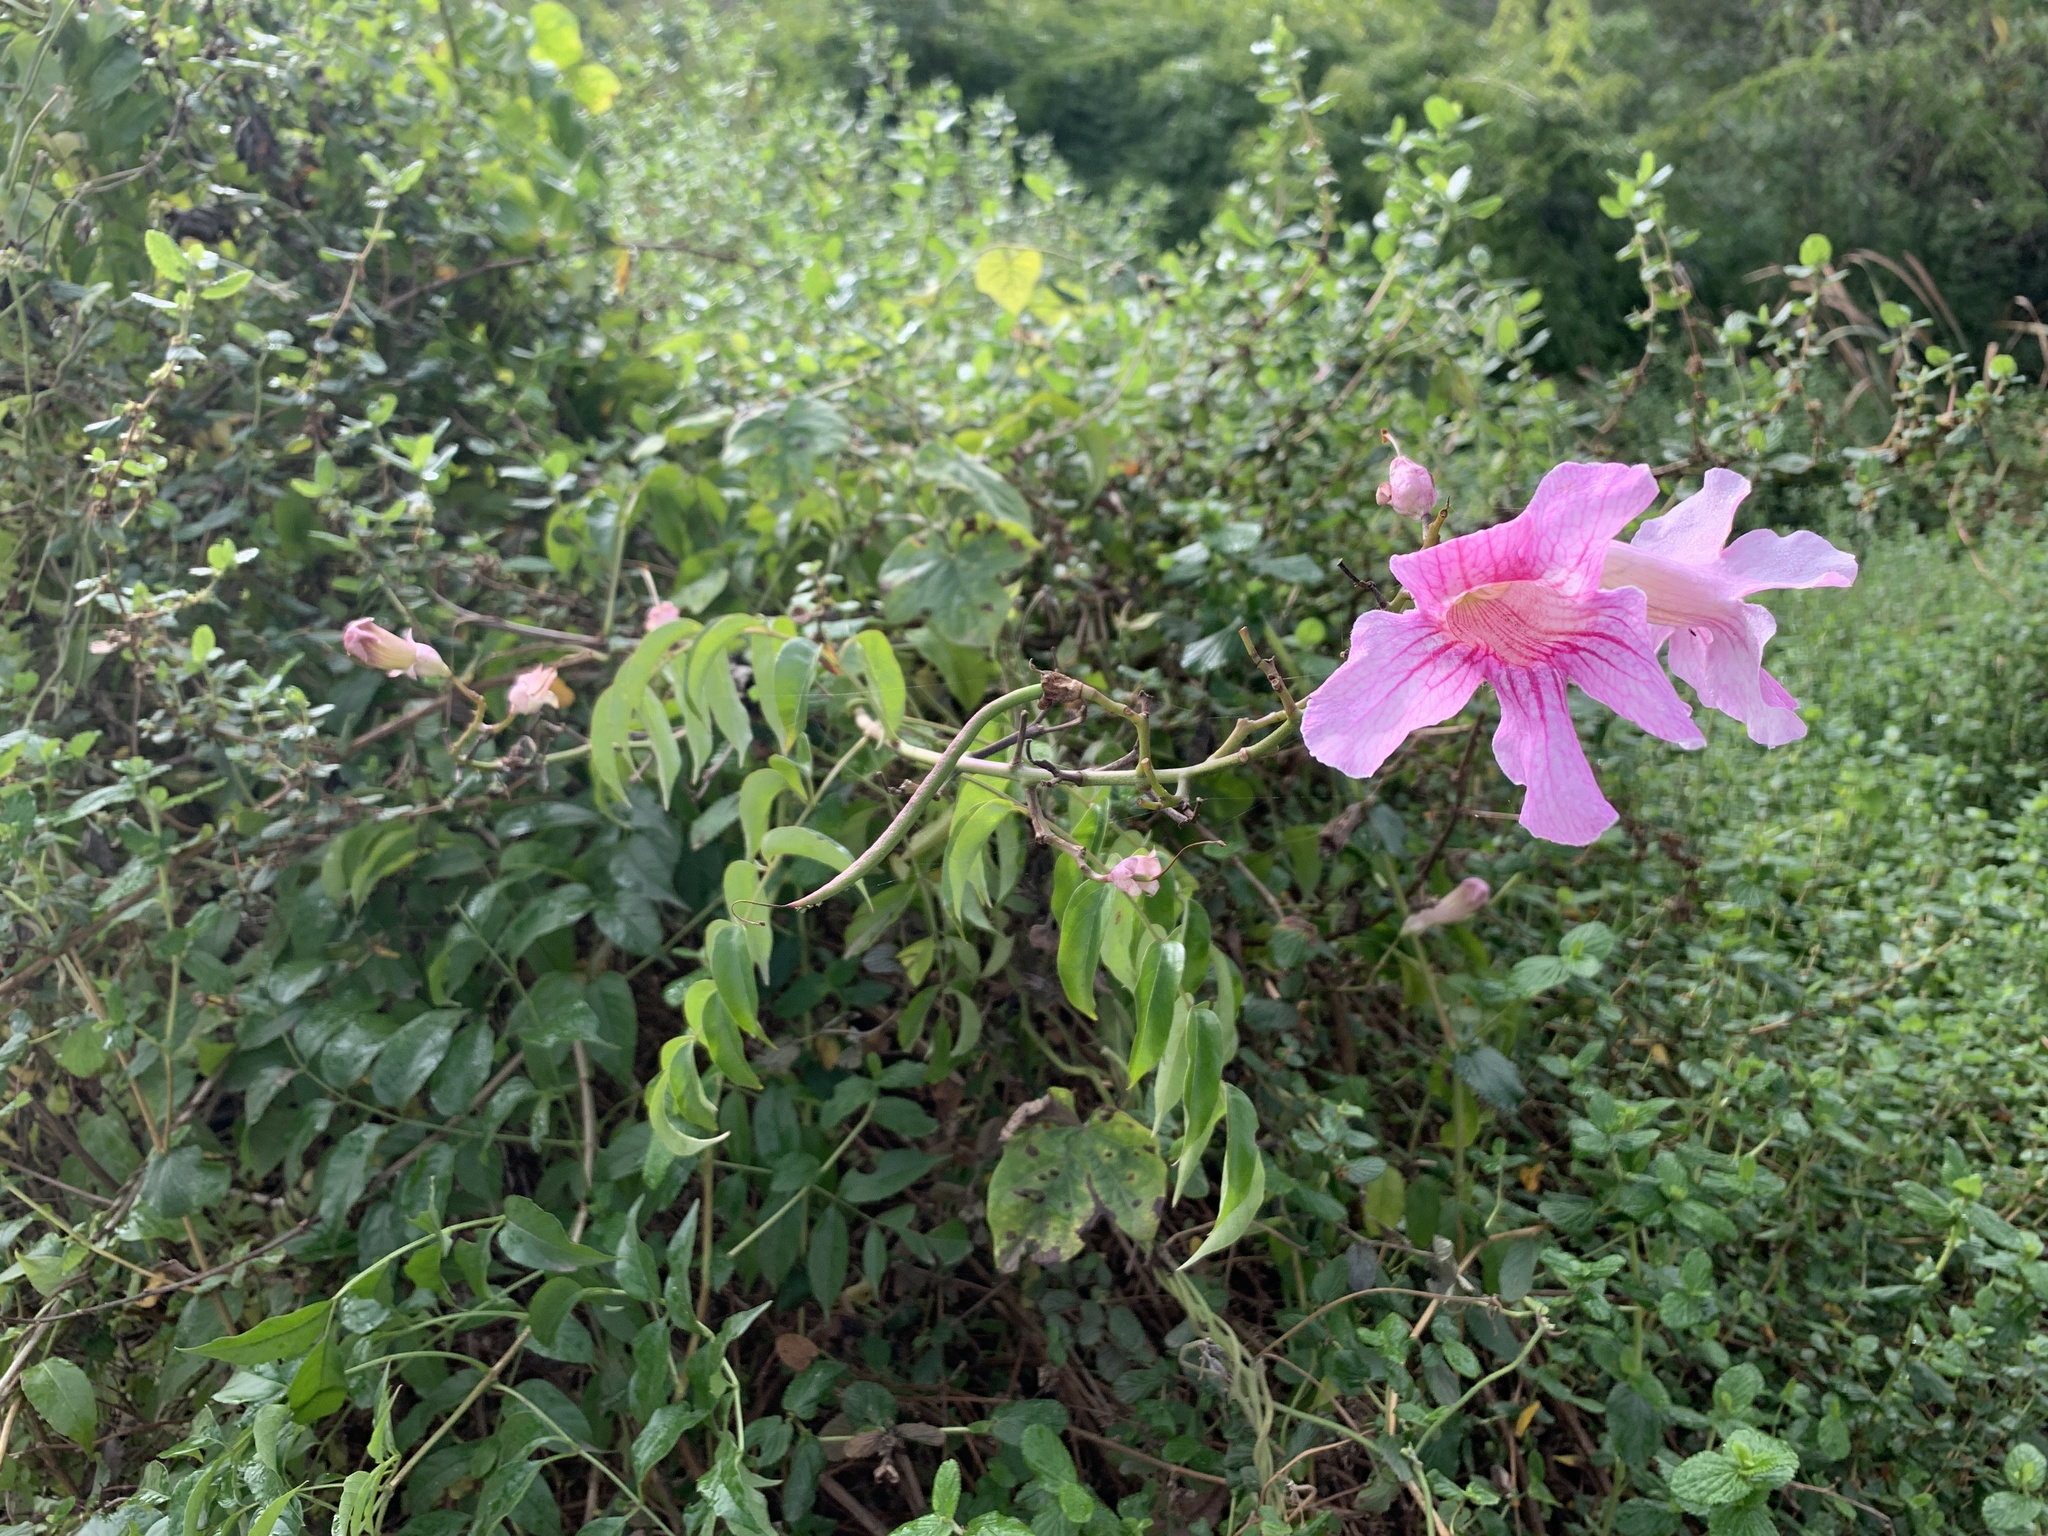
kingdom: Plantae
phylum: Tracheophyta
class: Magnoliopsida
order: Lamiales
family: Bignoniaceae
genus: Podranea
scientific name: Podranea ricasoliana
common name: Zimbabwe creeper
